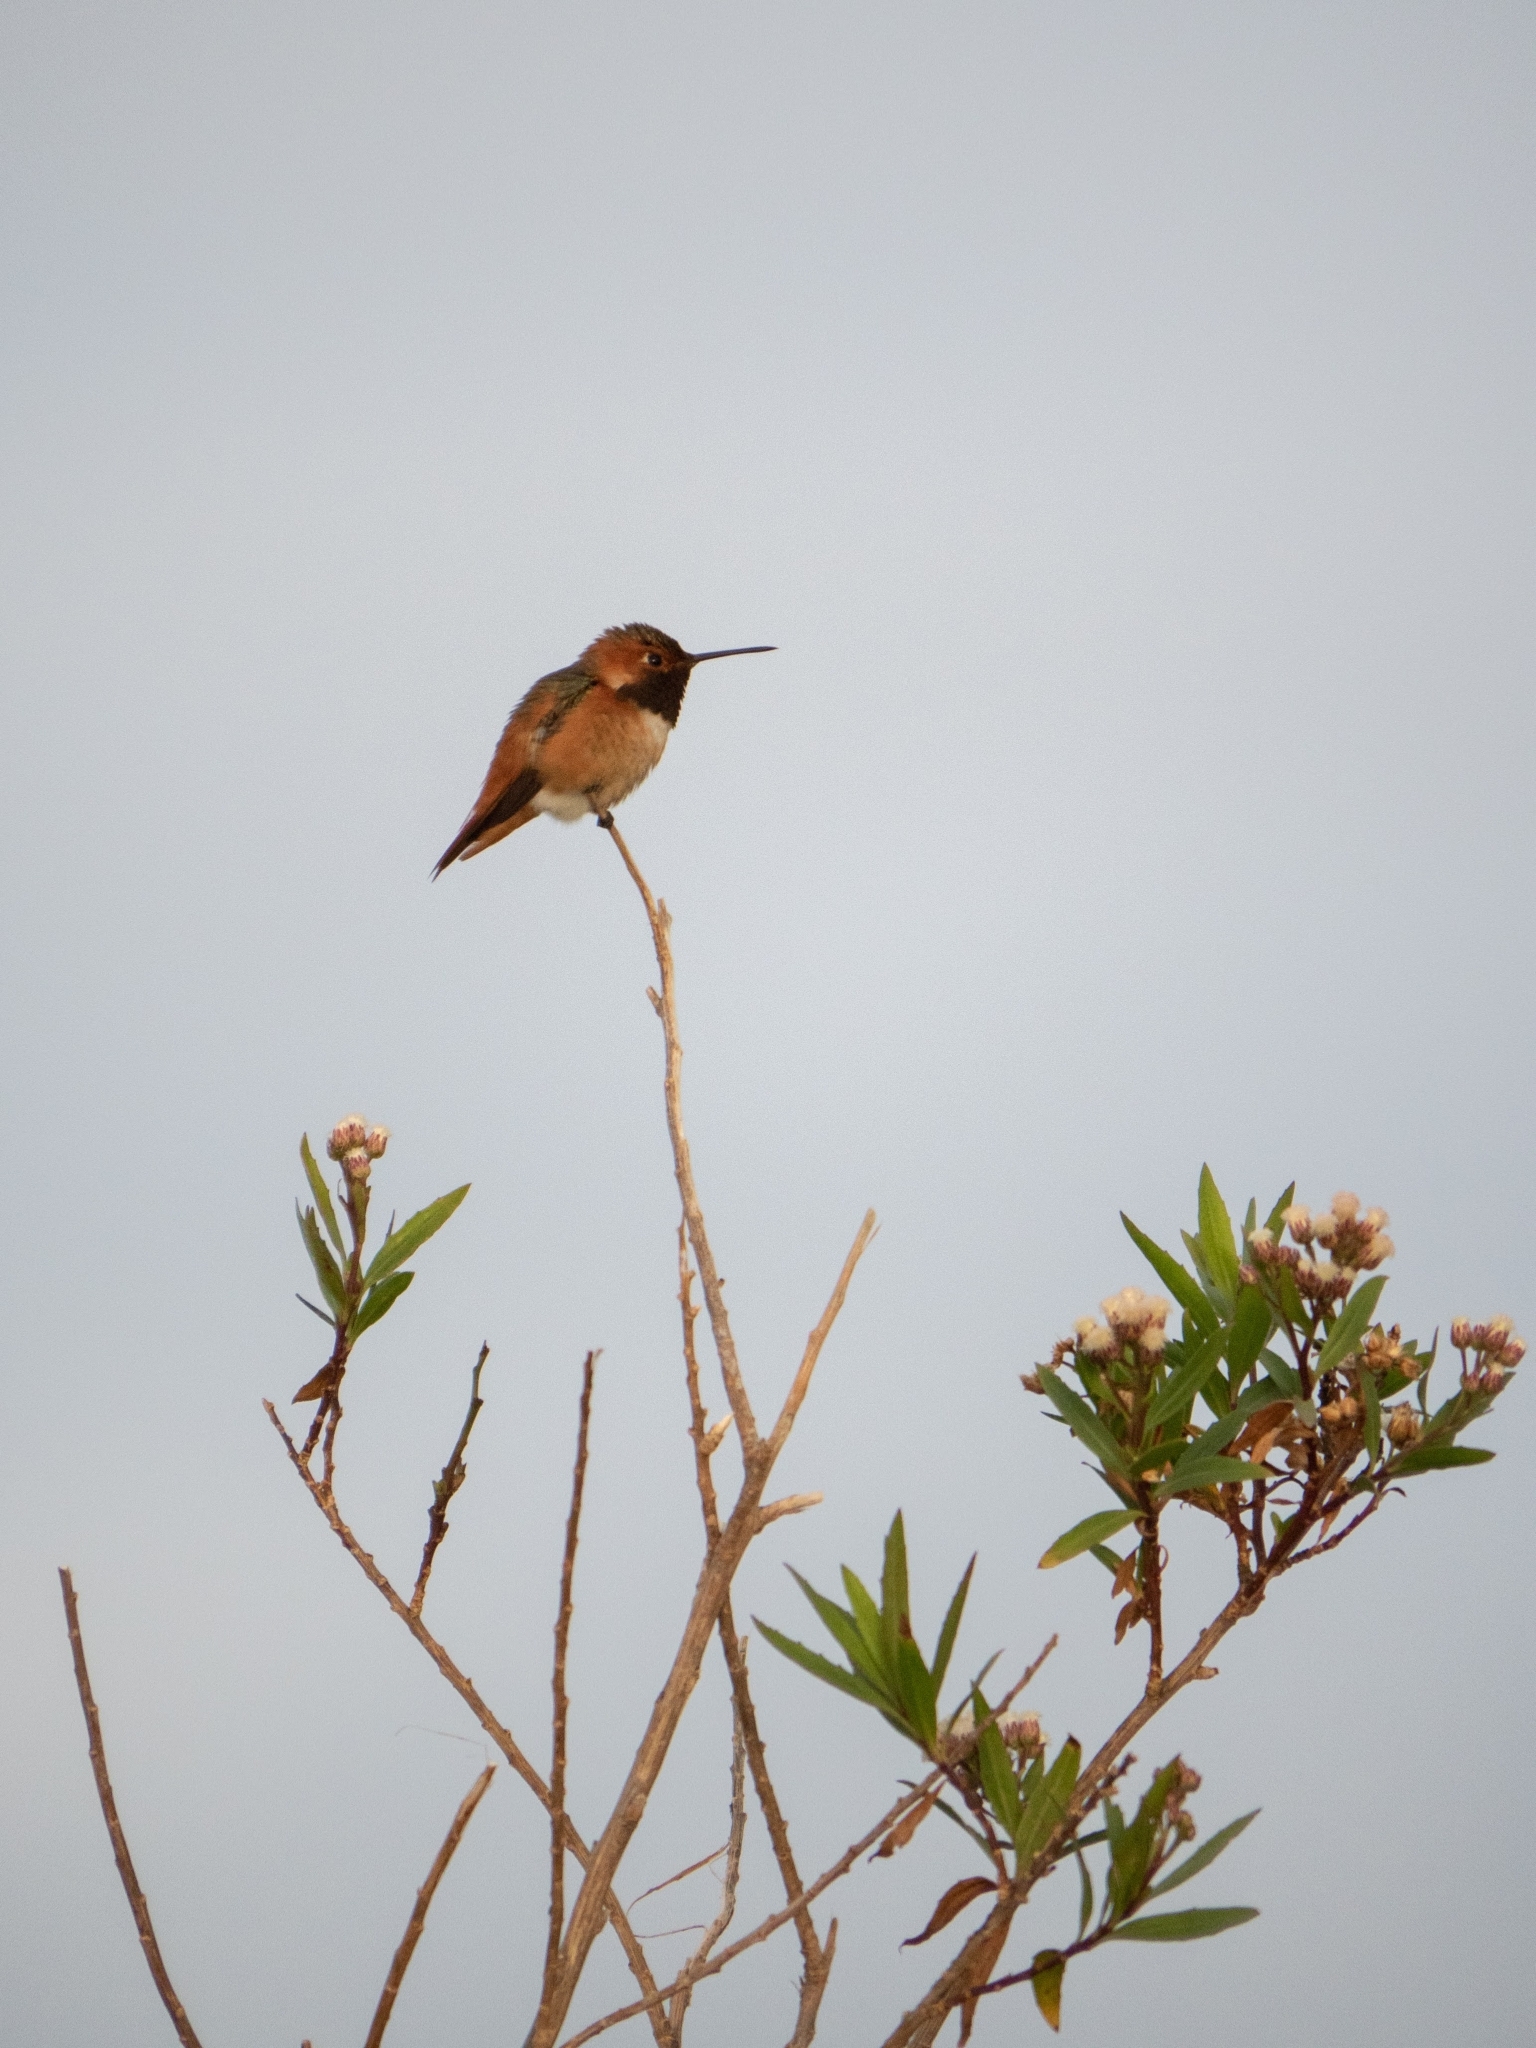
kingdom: Animalia
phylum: Chordata
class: Aves
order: Apodiformes
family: Trochilidae
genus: Selasphorus
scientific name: Selasphorus sasin
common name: Allen's hummingbird
